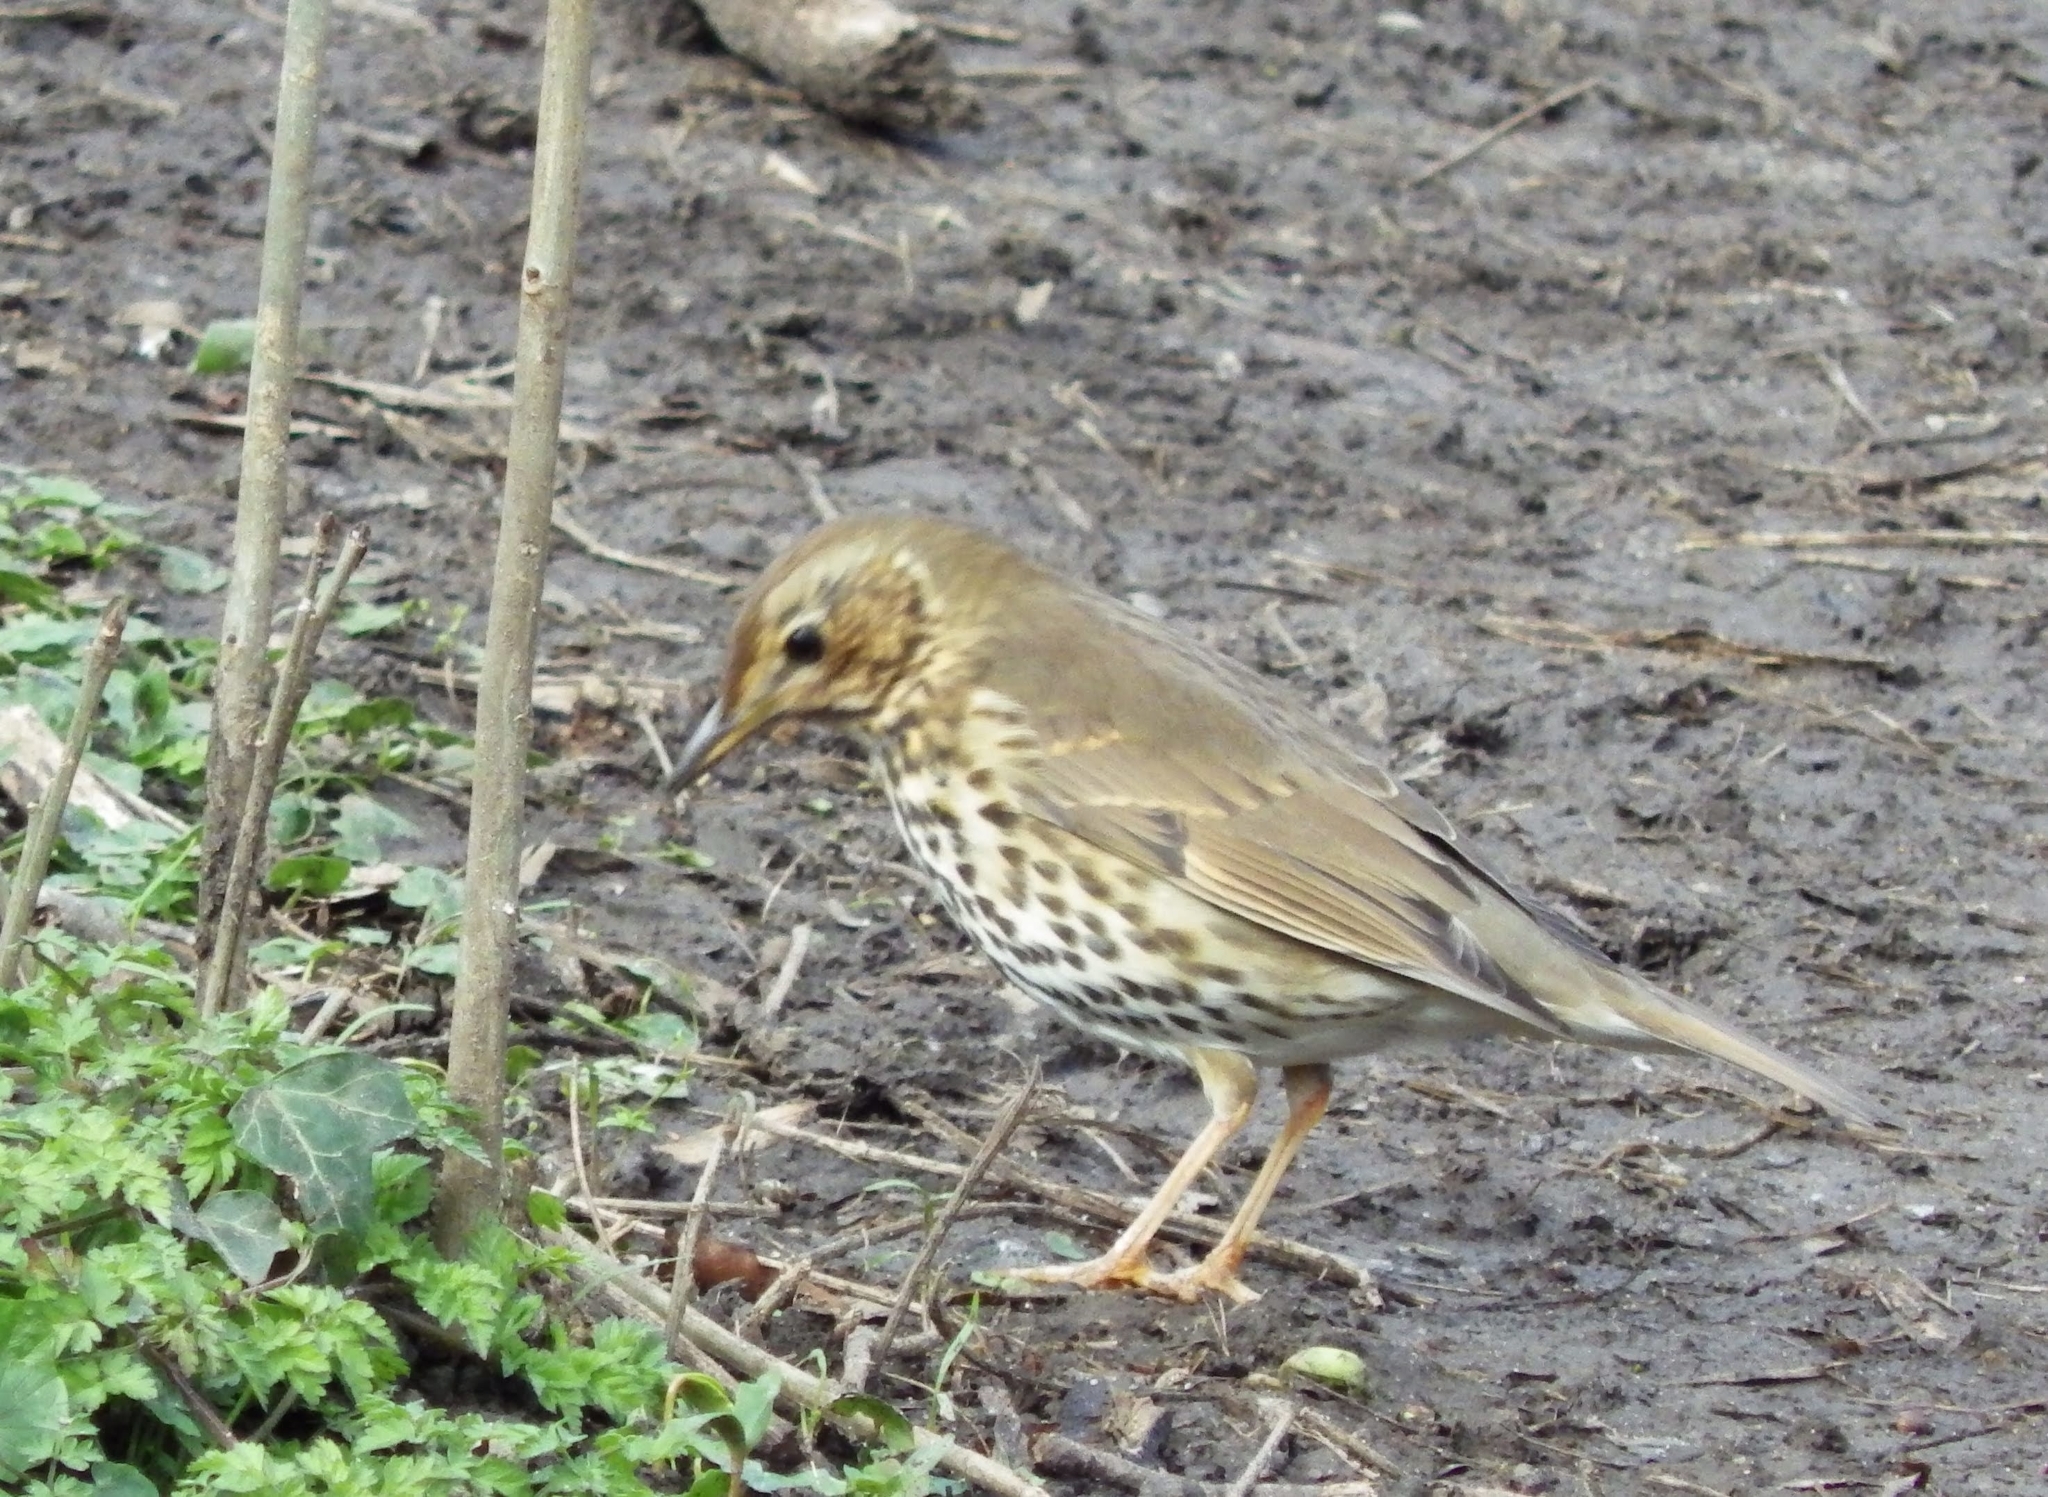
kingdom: Animalia
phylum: Chordata
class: Aves
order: Passeriformes
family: Turdidae
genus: Turdus
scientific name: Turdus philomelos
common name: Song thrush
